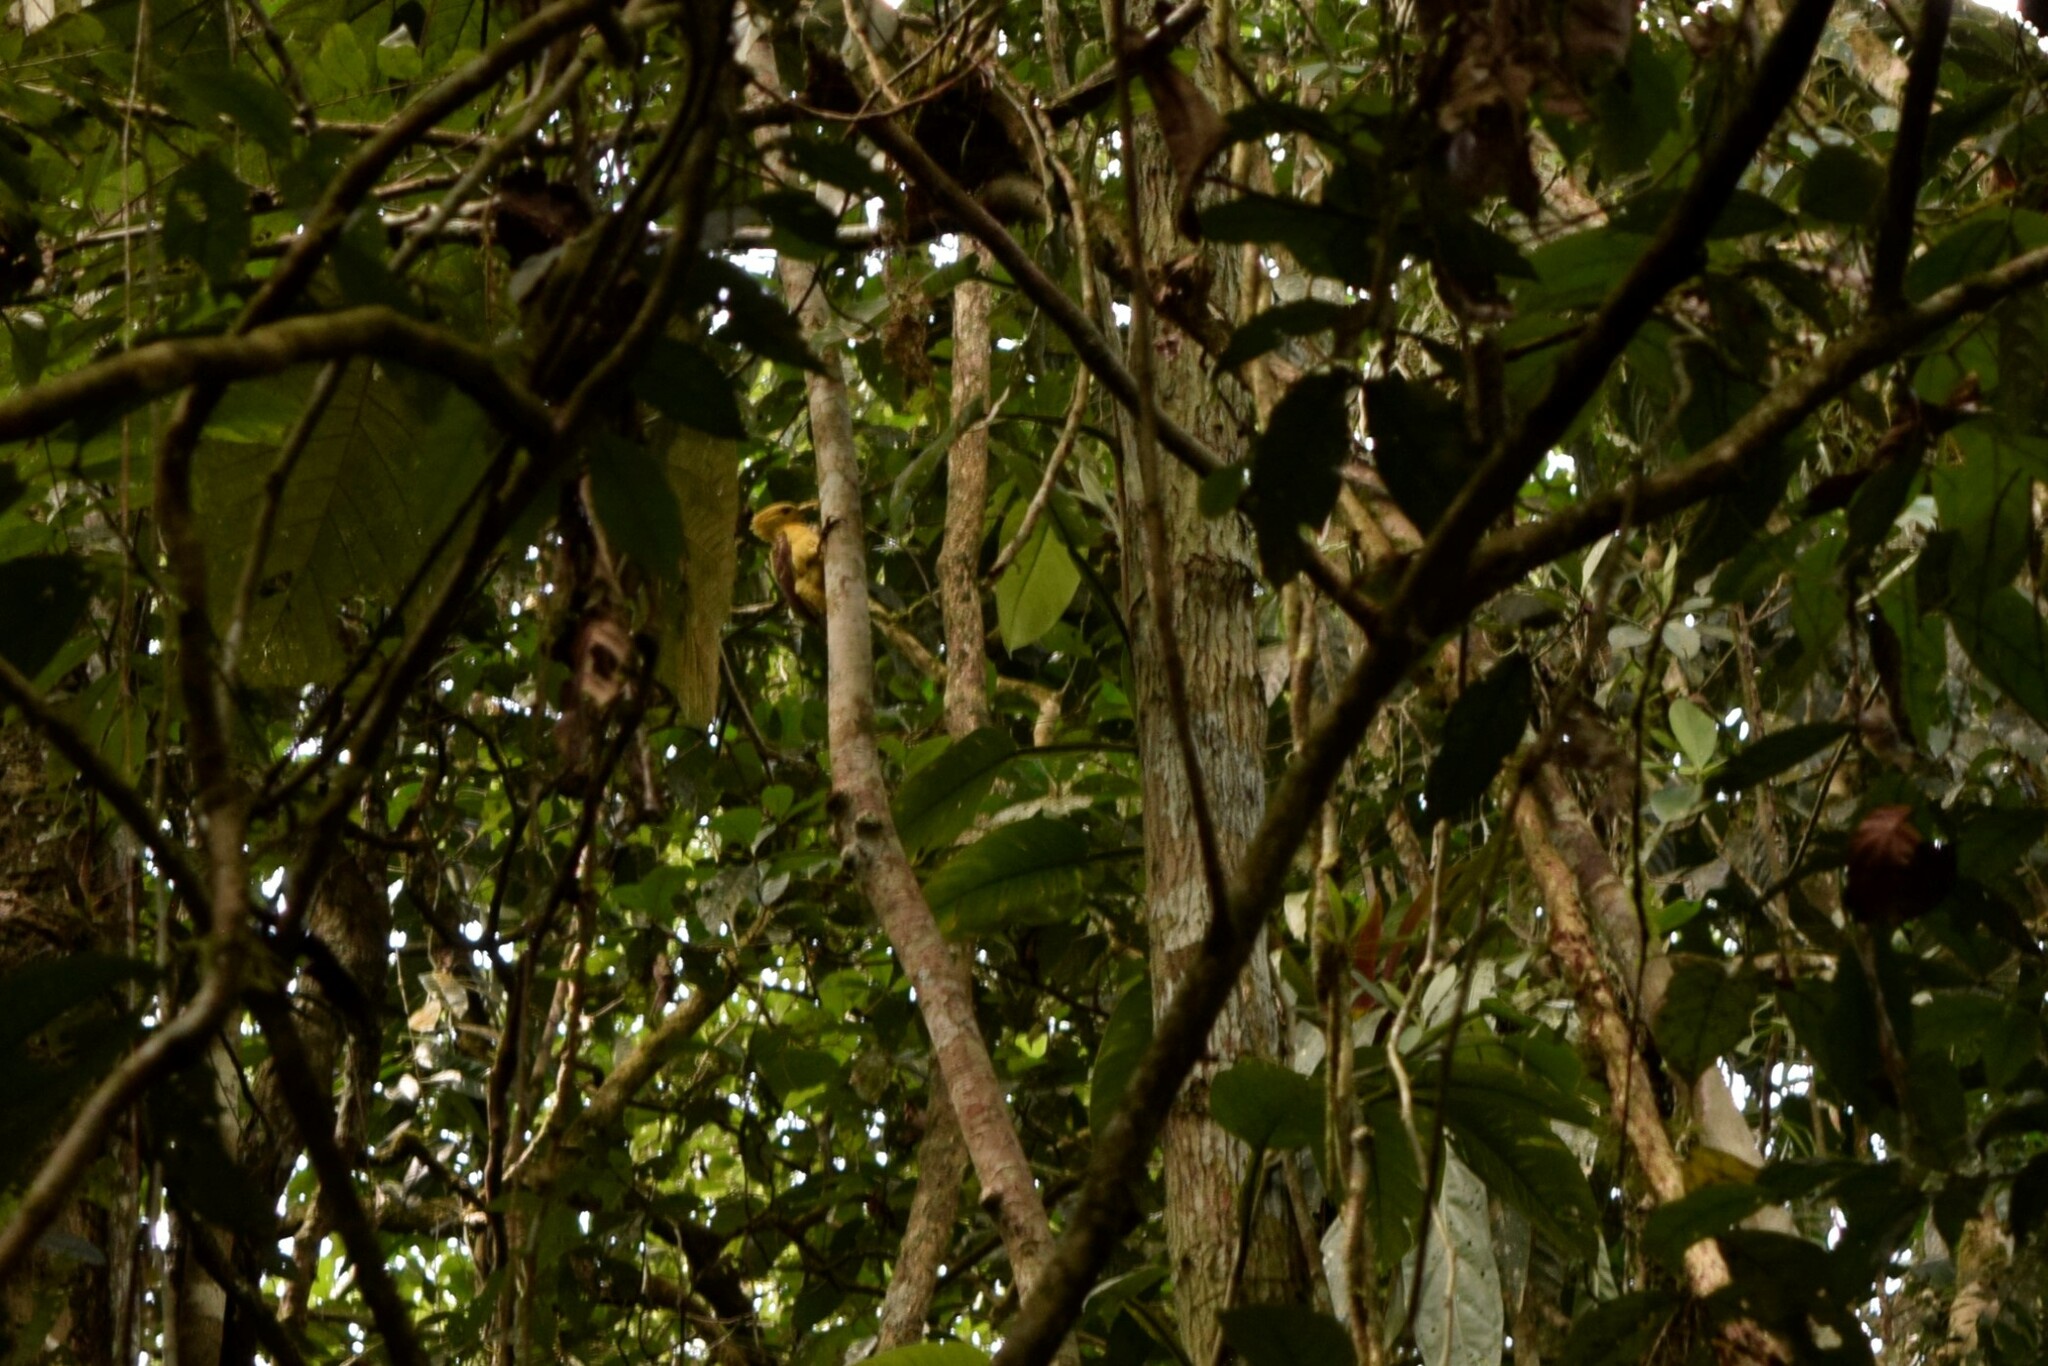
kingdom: Animalia
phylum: Chordata
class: Aves
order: Piciformes
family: Picidae
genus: Celeus
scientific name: Celeus flavus
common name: Cream-colored woodpecker
